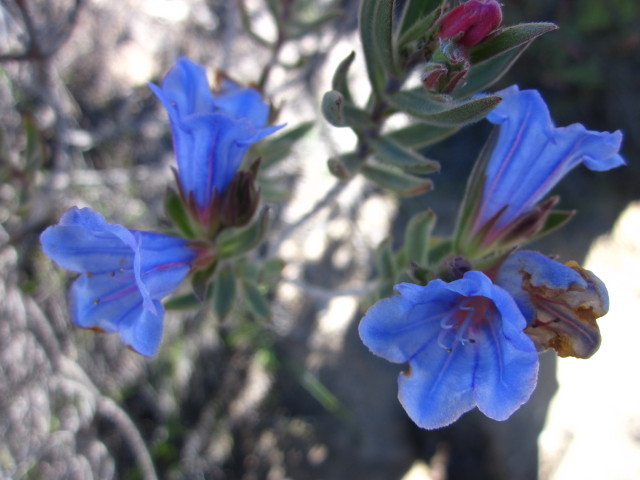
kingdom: Plantae
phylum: Tracheophyta
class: Magnoliopsida
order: Boraginales
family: Boraginaceae
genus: Lobostemon
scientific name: Lobostemon fruticosus
